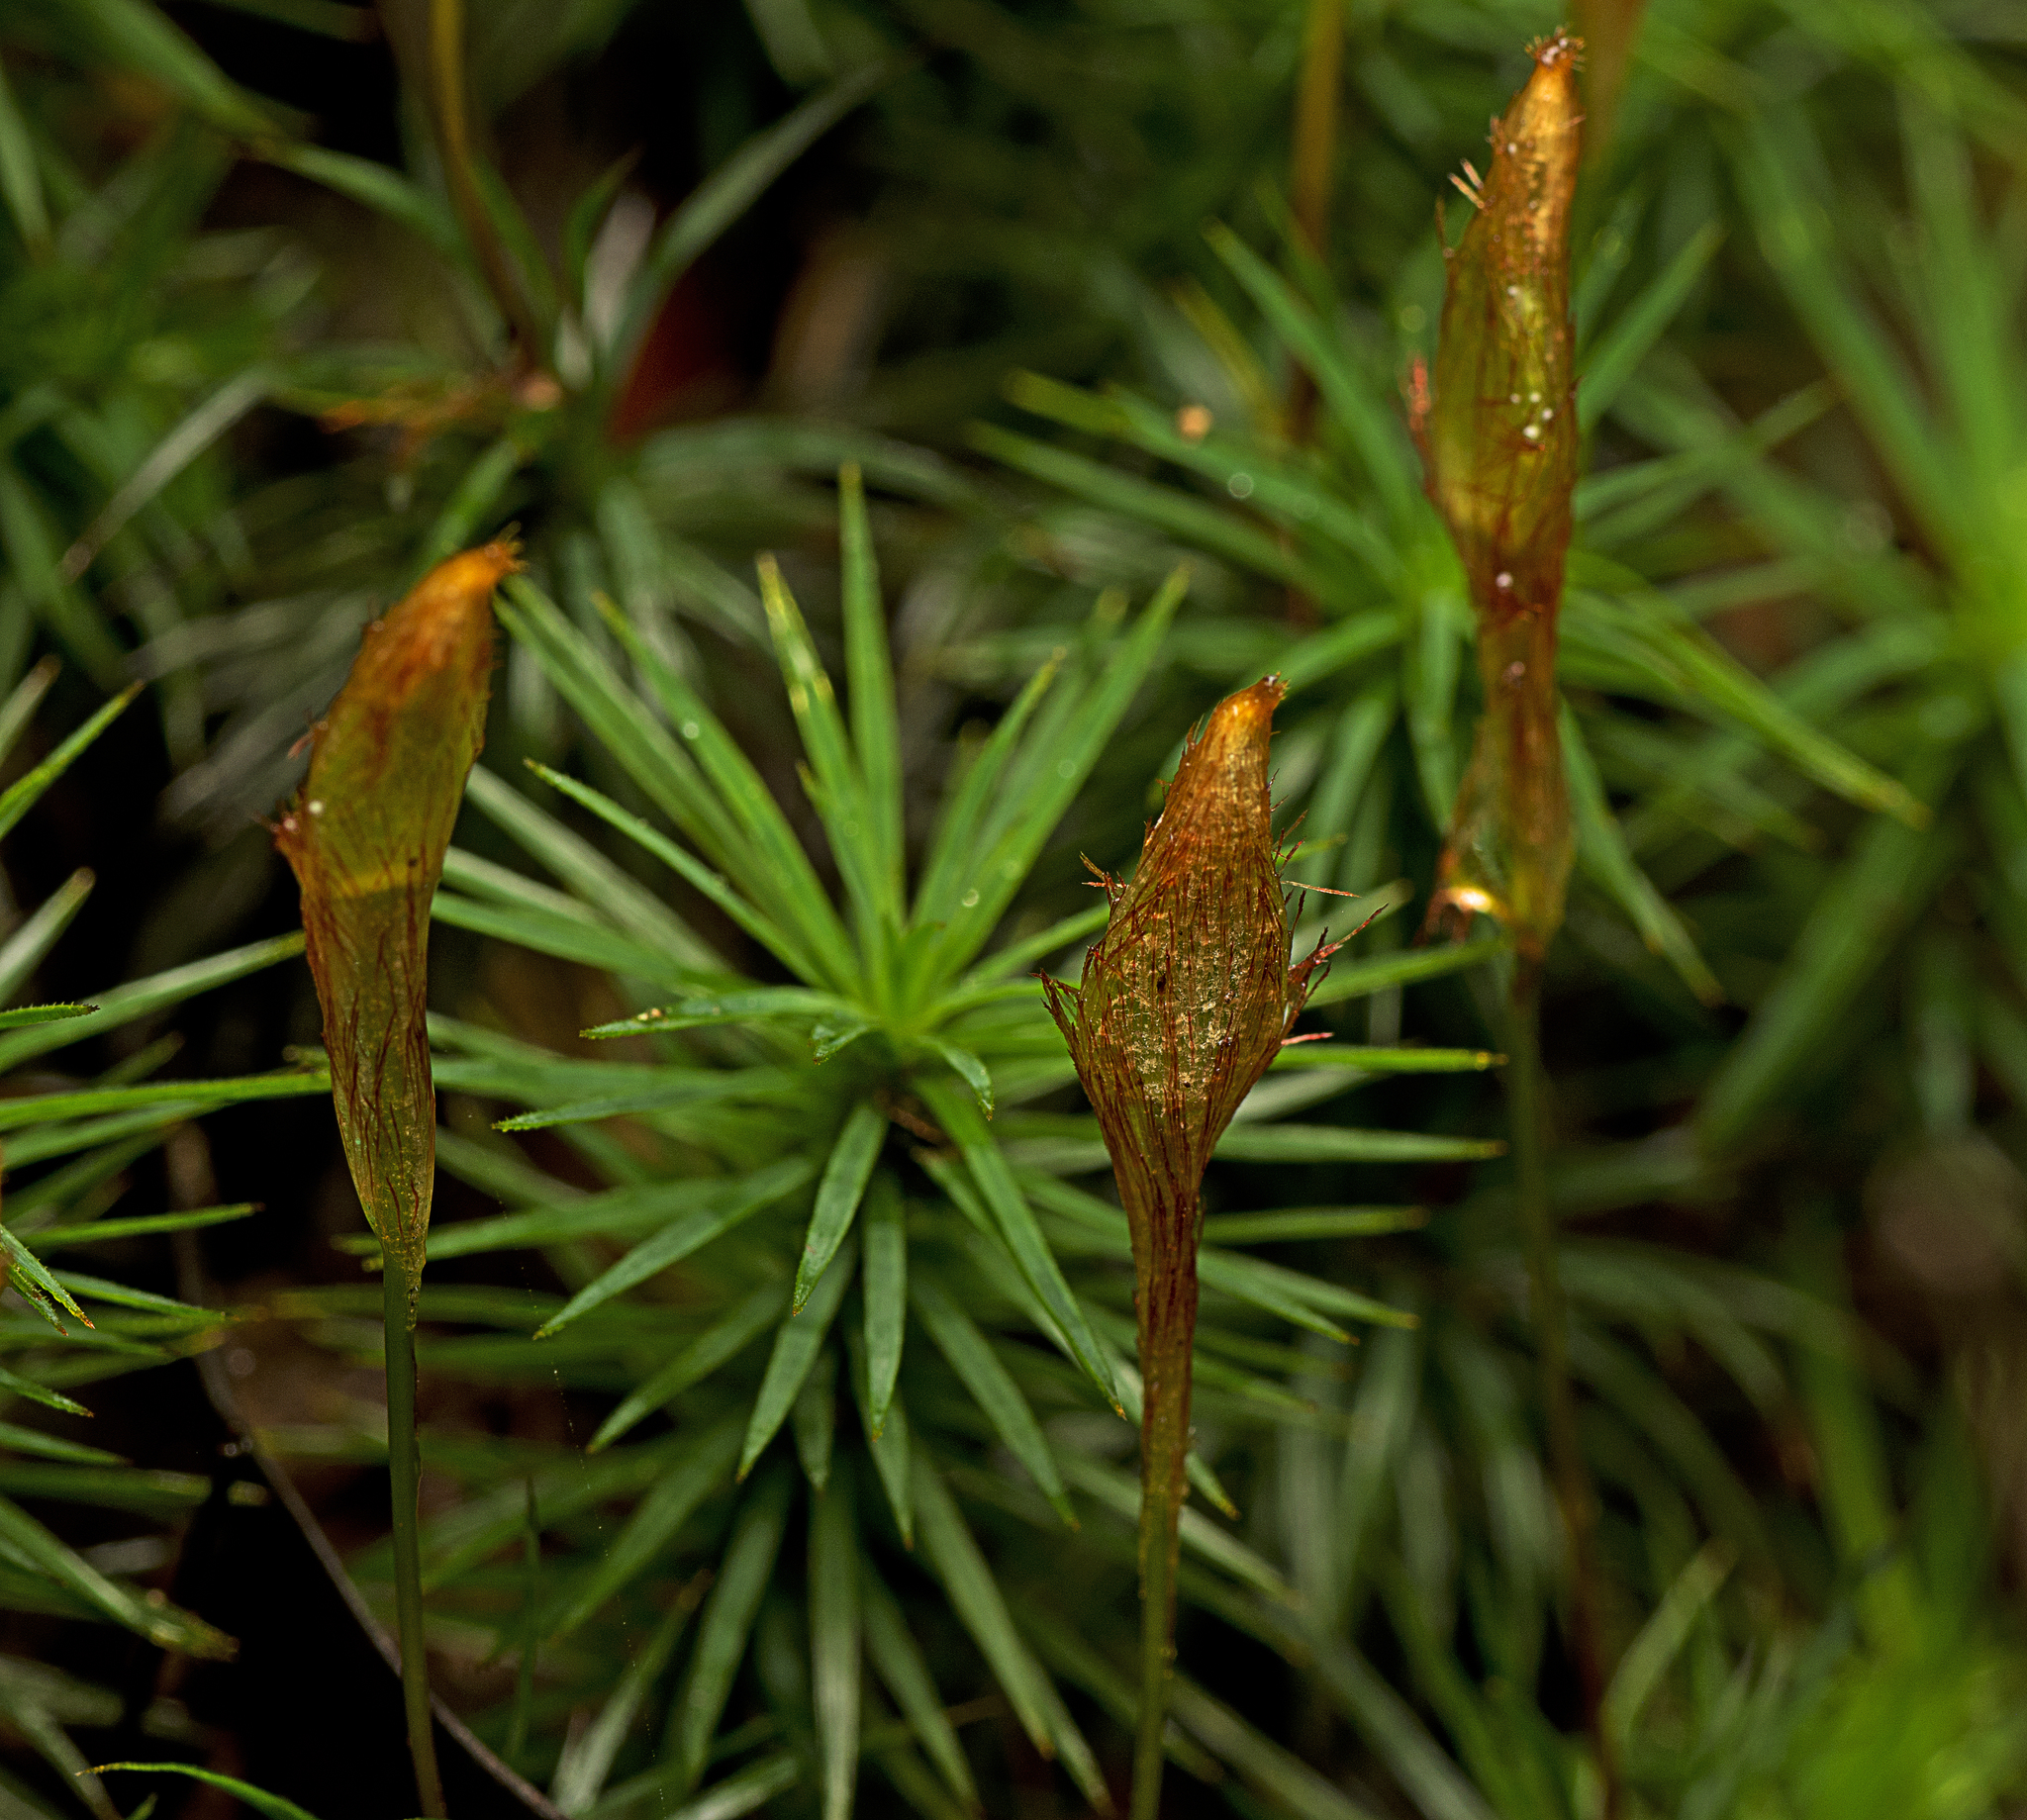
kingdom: Plantae
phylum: Bryophyta
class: Polytrichopsida
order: Polytrichales
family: Polytrichaceae
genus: Dawsonia
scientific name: Dawsonia polytrichoides
